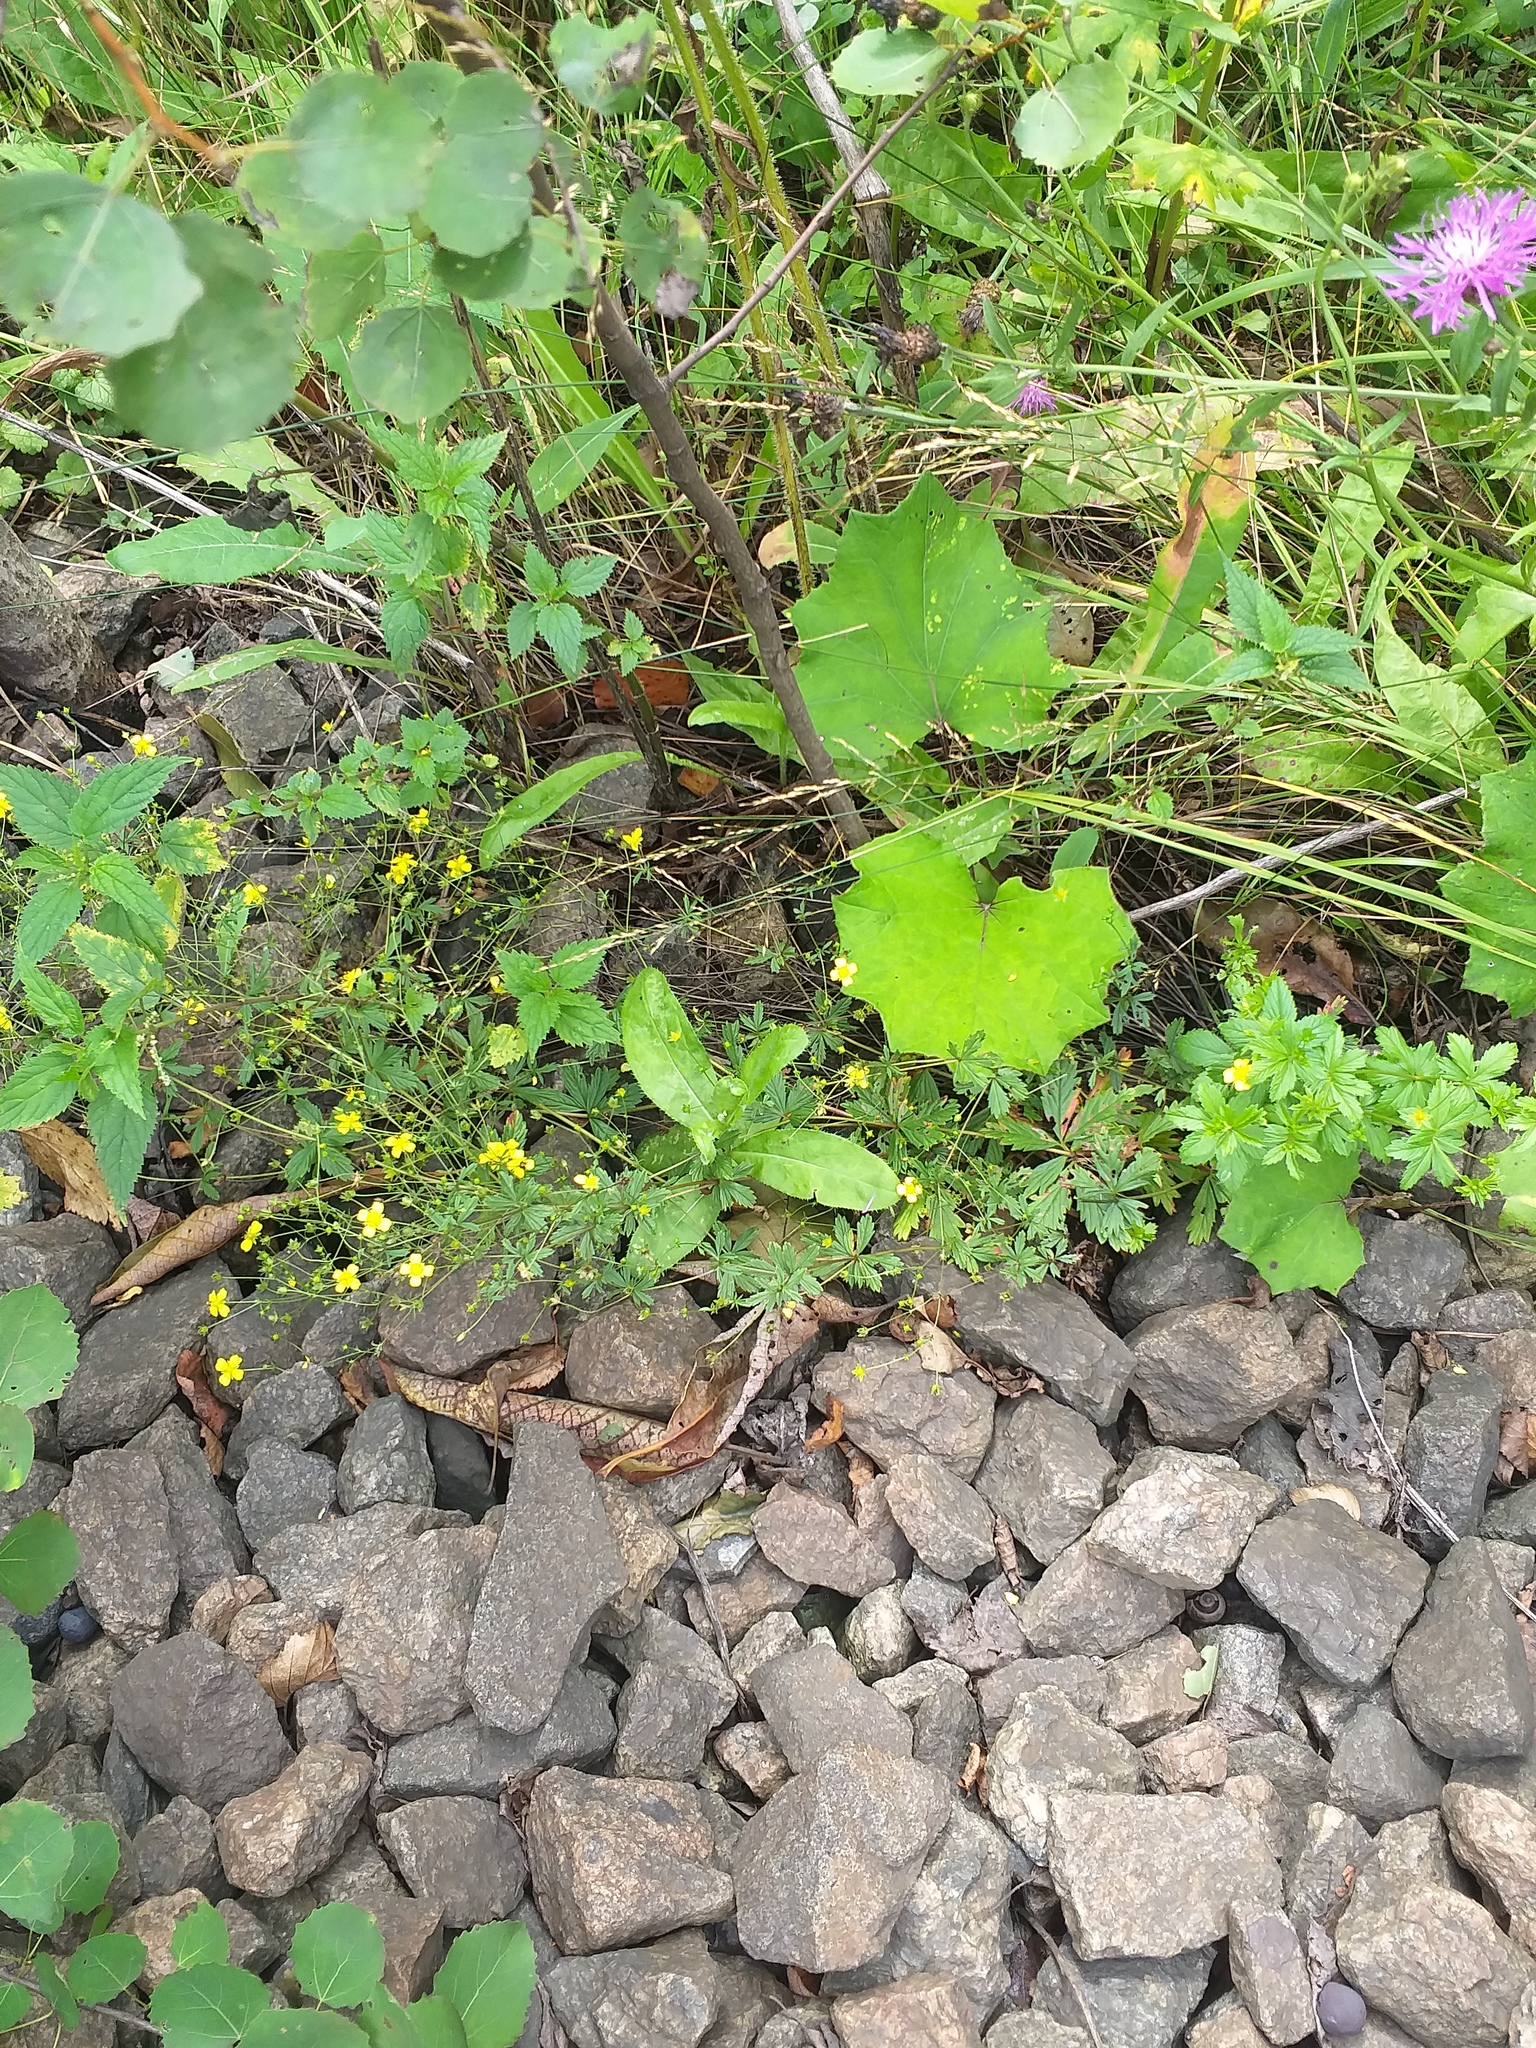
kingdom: Plantae
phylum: Tracheophyta
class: Magnoliopsida
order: Rosales
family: Rosaceae
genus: Potentilla
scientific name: Potentilla erecta
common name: Tormentil
